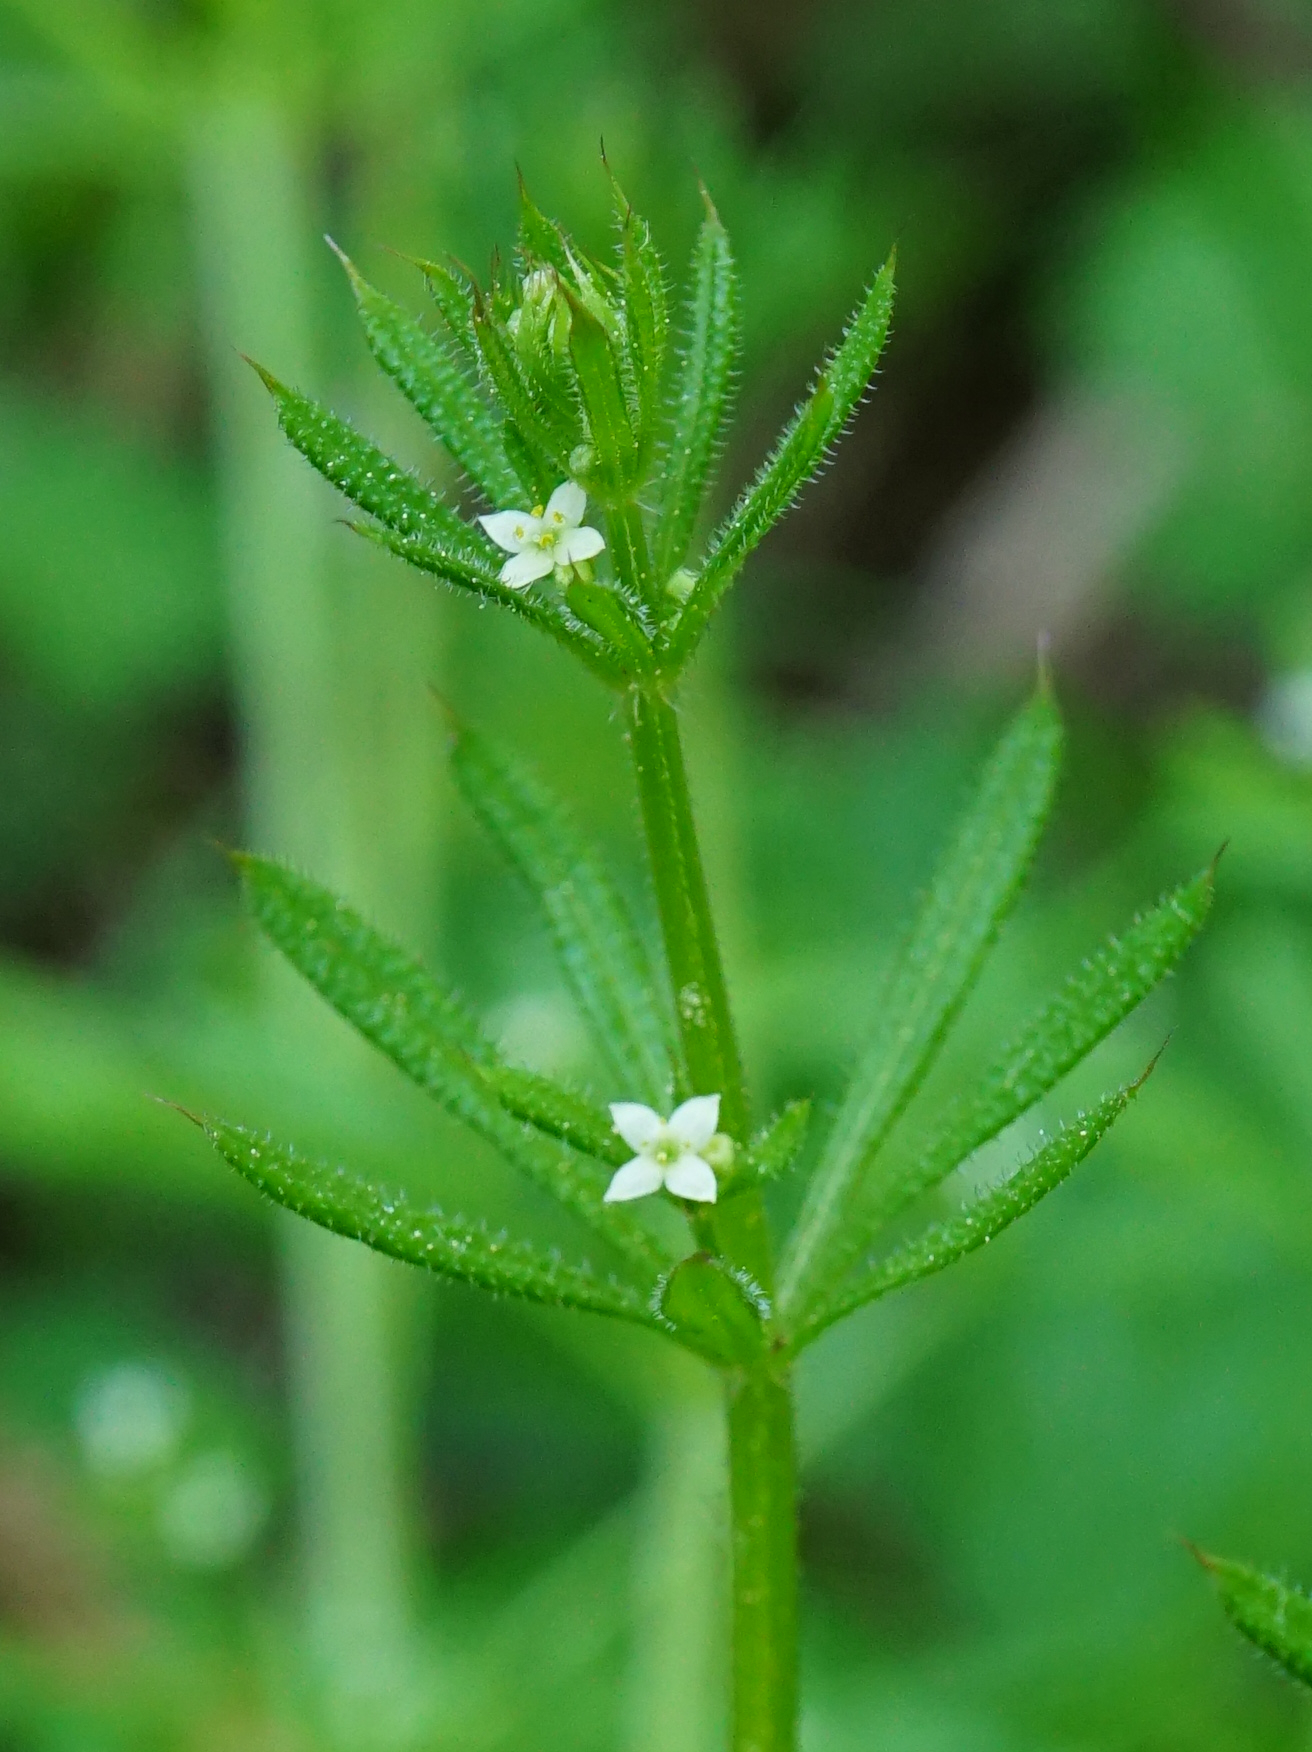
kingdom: Plantae
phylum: Tracheophyta
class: Magnoliopsida
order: Gentianales
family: Rubiaceae
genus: Galium
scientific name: Galium aparine
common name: Cleavers
